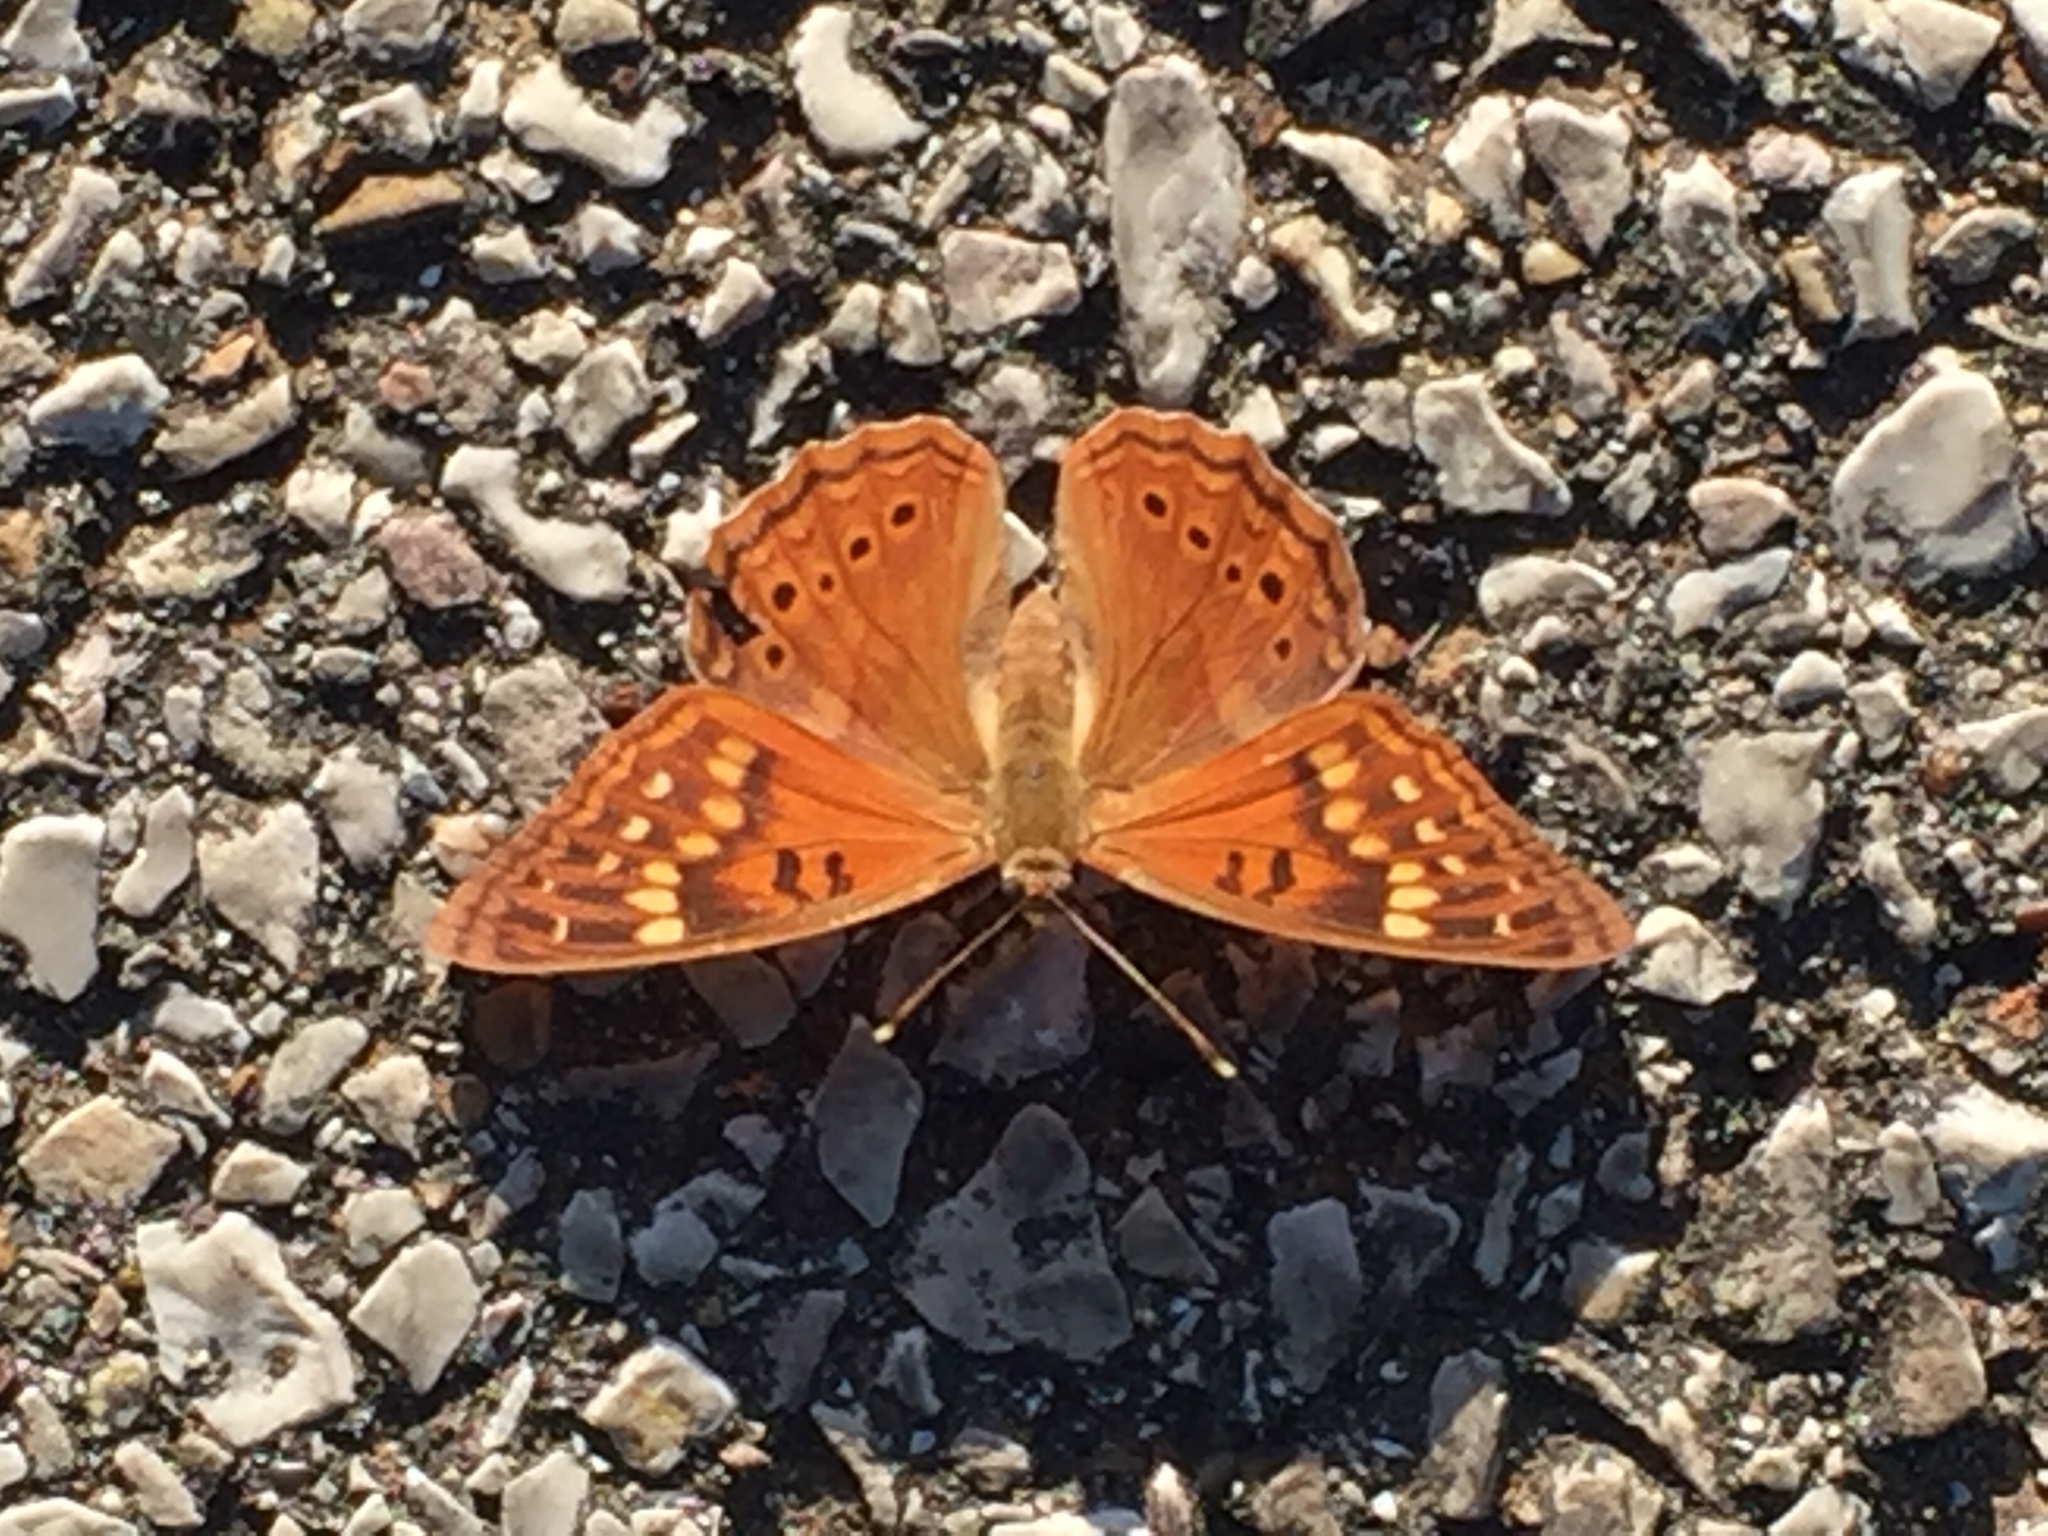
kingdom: Animalia
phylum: Arthropoda
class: Insecta
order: Lepidoptera
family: Nymphalidae
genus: Asterocampa
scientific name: Asterocampa clyton
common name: Tawny emperor
